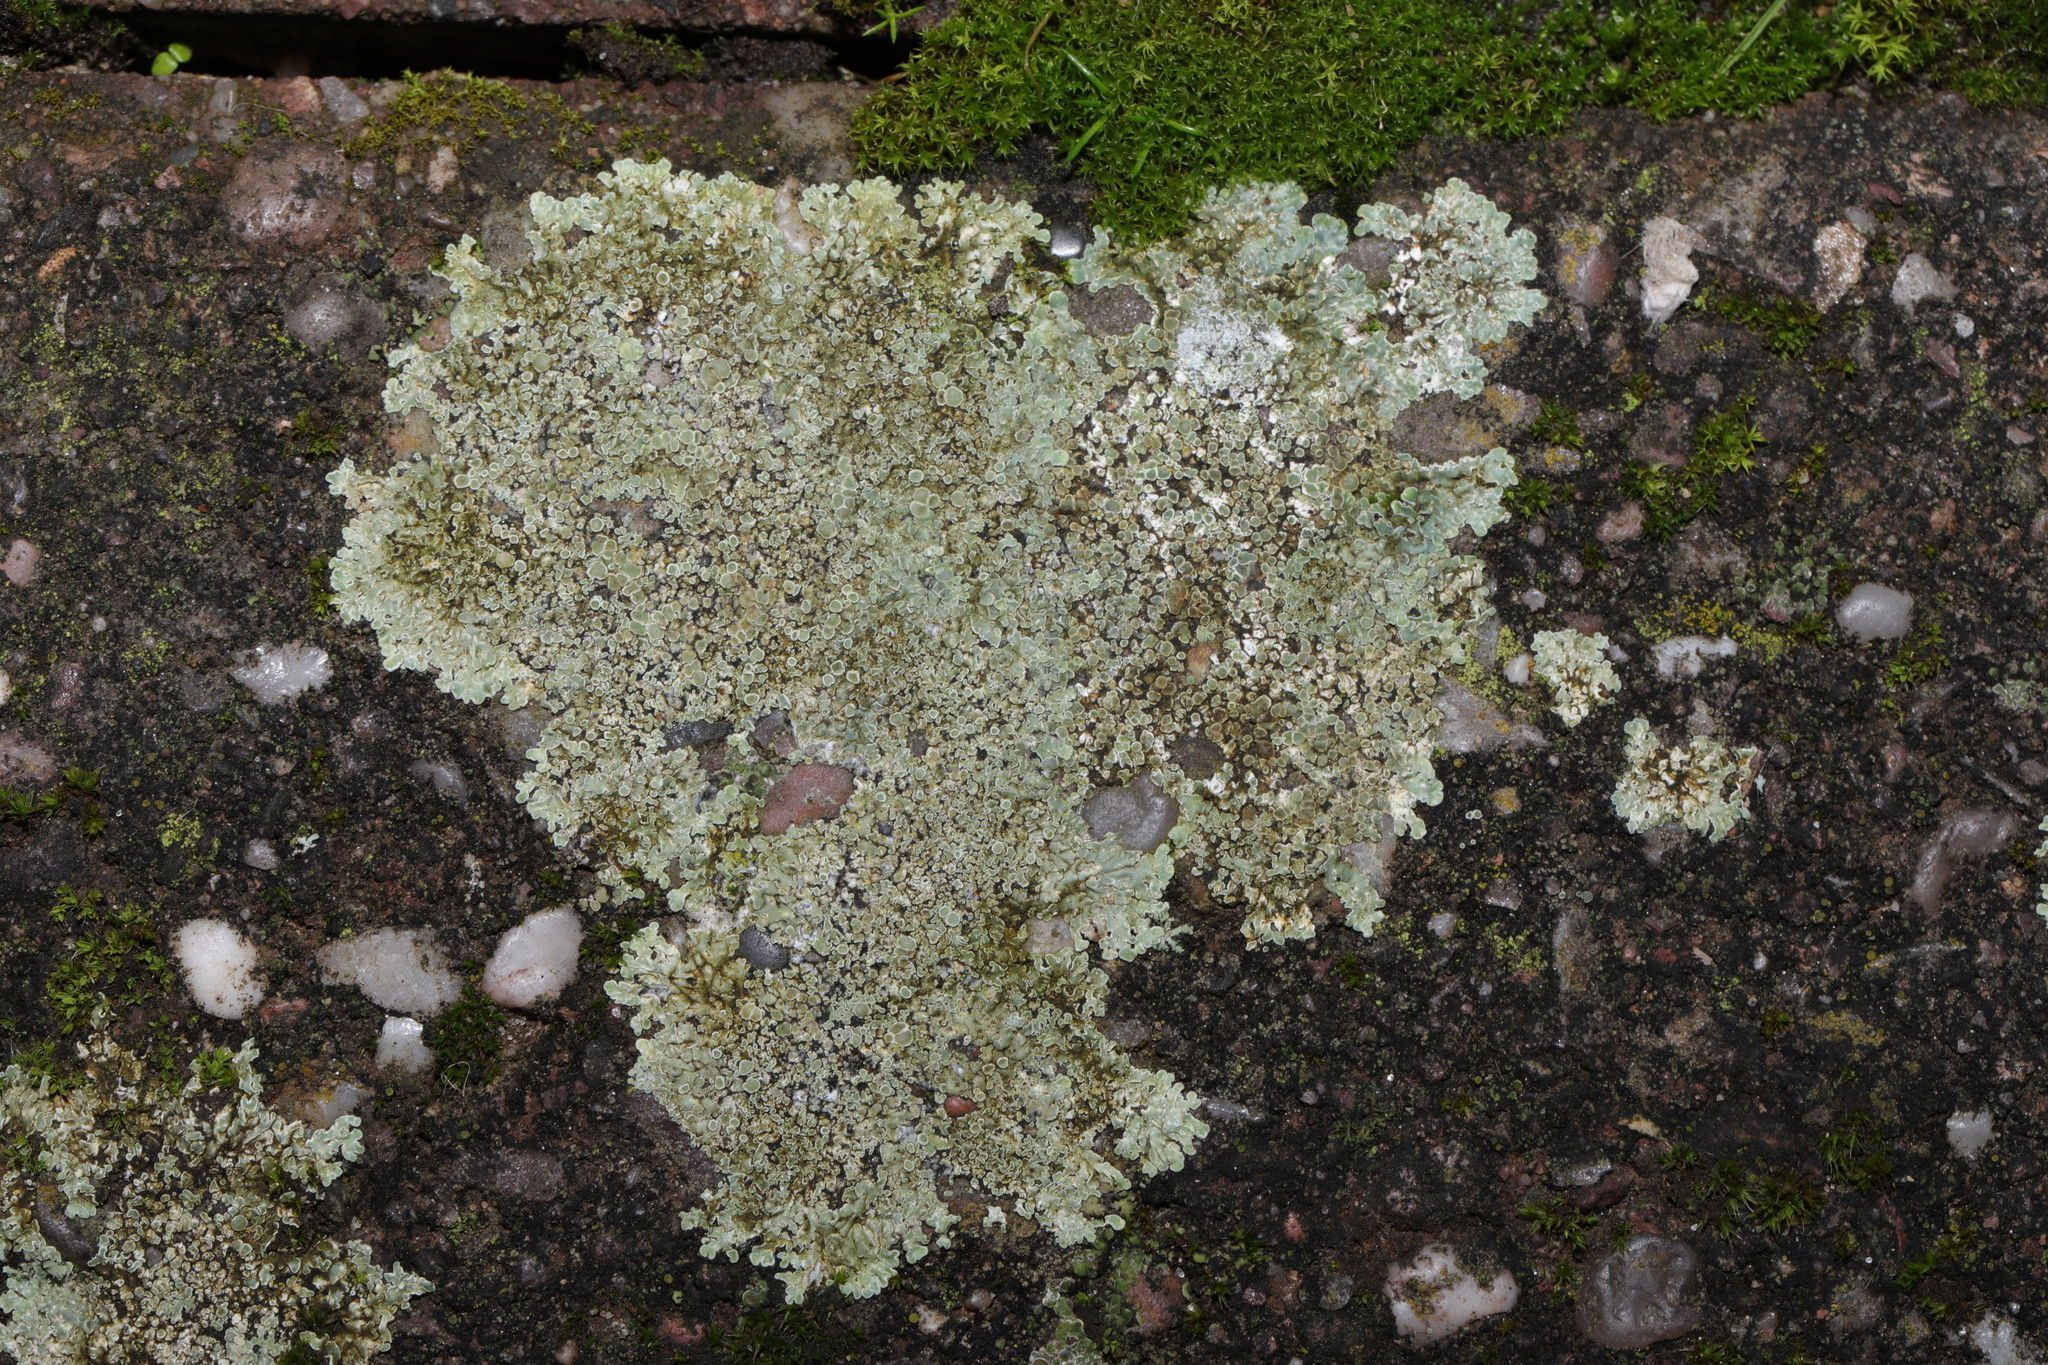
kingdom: Fungi
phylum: Ascomycota
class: Lecanoromycetes
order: Lecanorales
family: Lecanoraceae
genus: Protoparmeliopsis
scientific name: Protoparmeliopsis muralis
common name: Stonewall rim lichen
